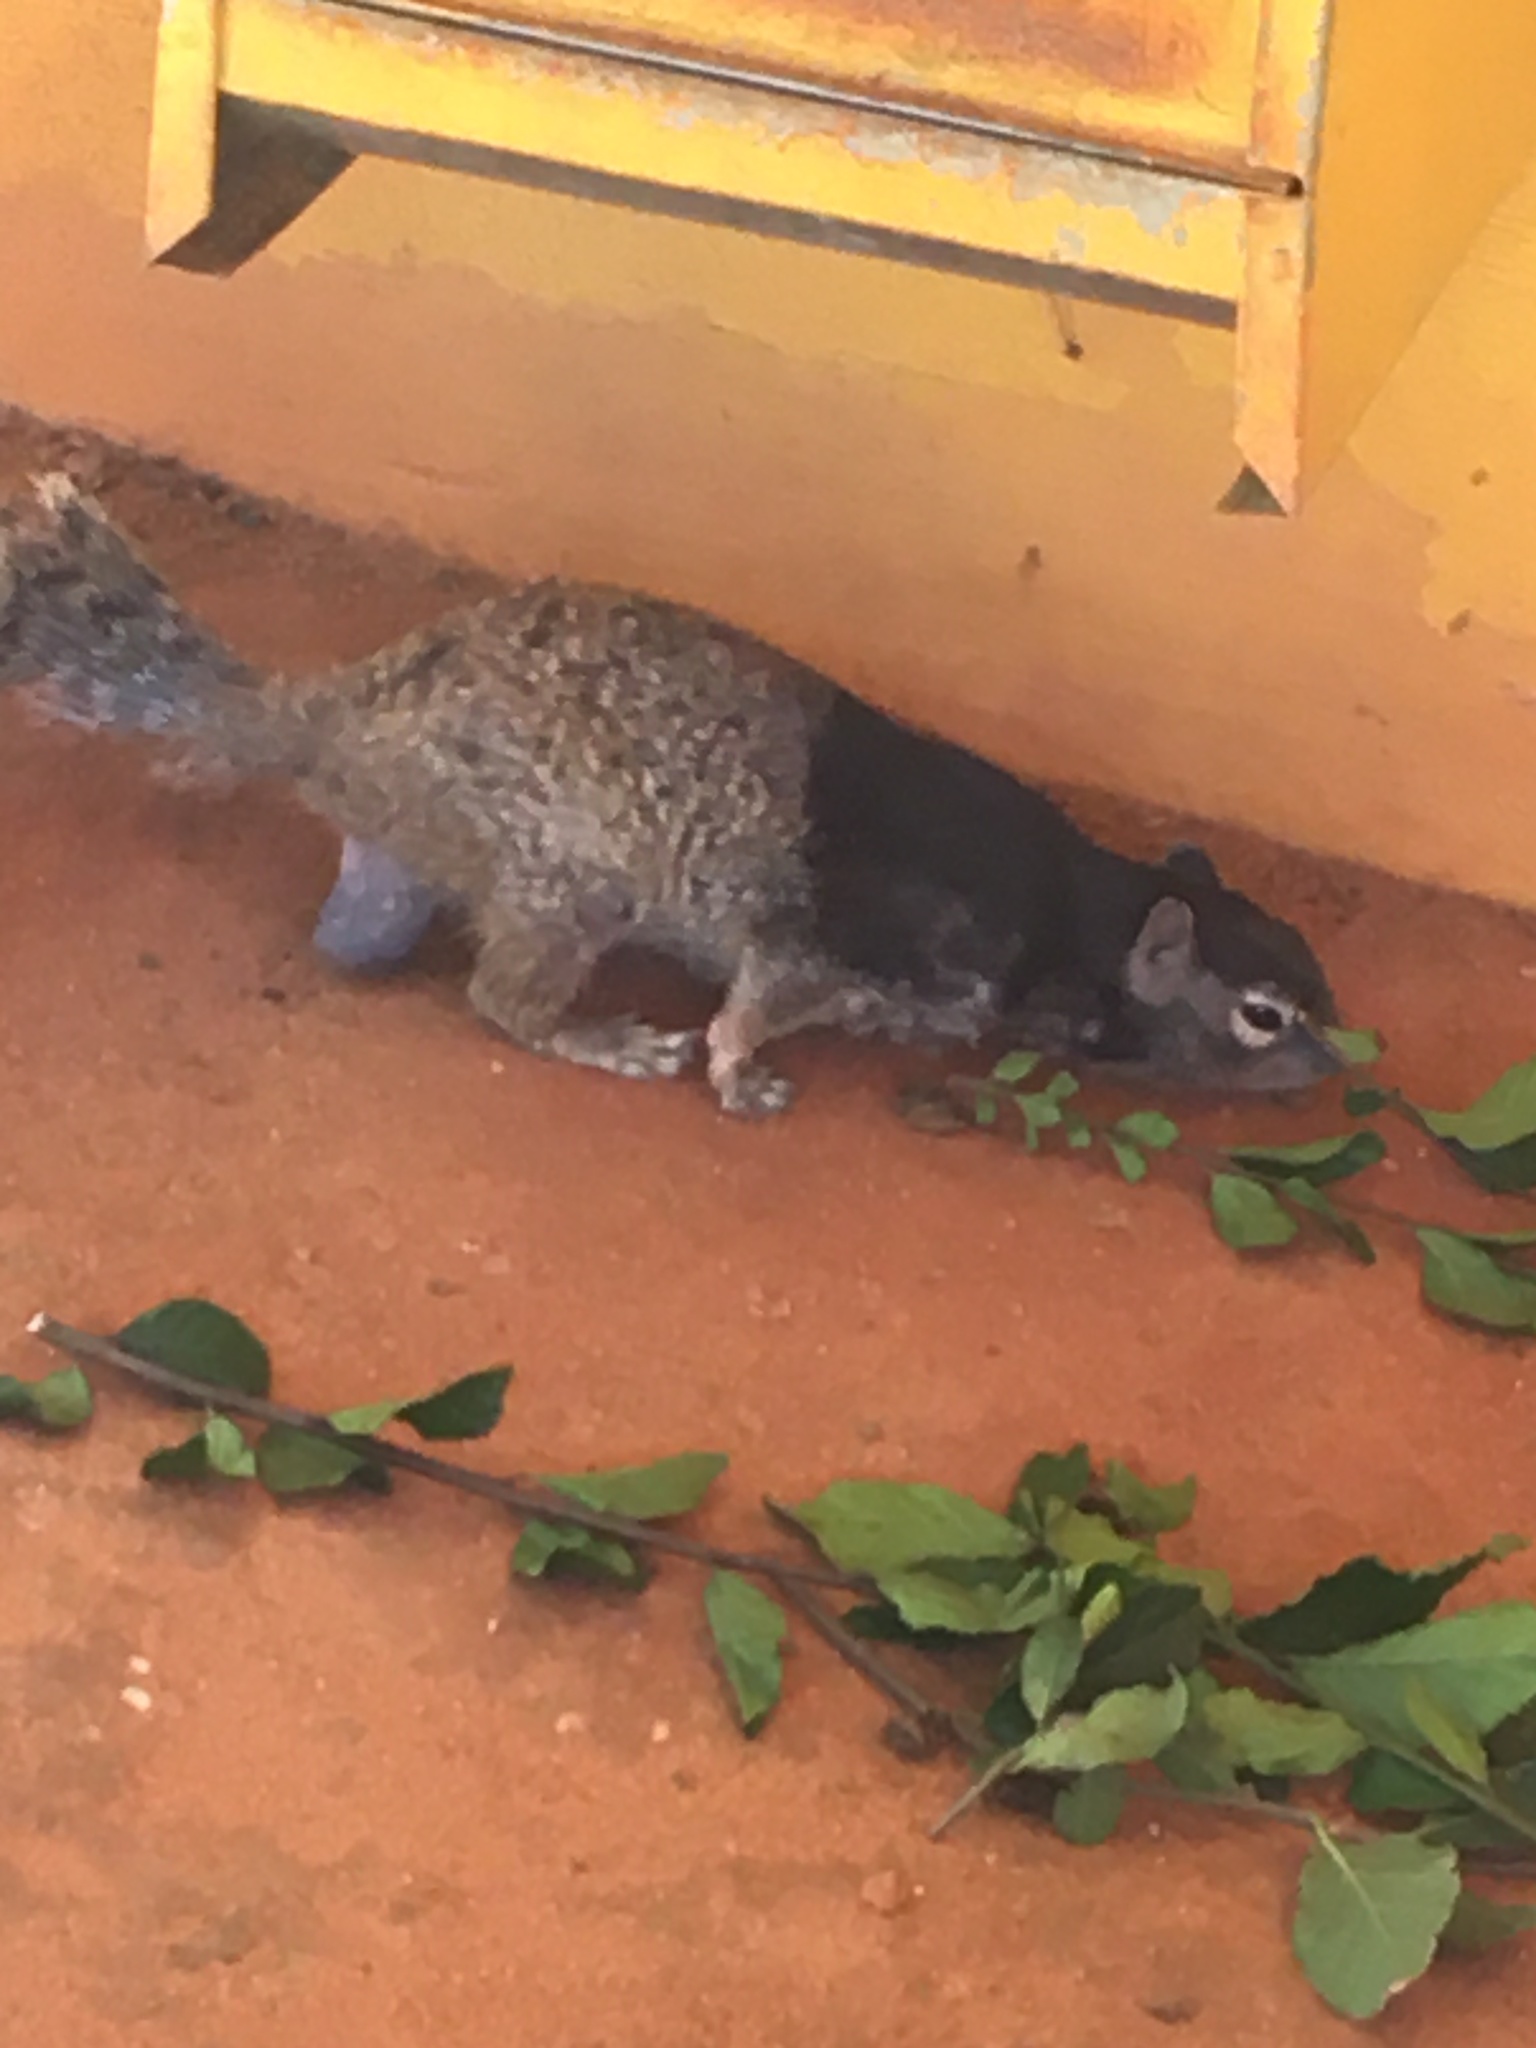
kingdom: Animalia
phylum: Chordata
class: Mammalia
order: Rodentia
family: Sciuridae
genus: Otospermophilus
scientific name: Otospermophilus variegatus
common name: Rock squirrel
